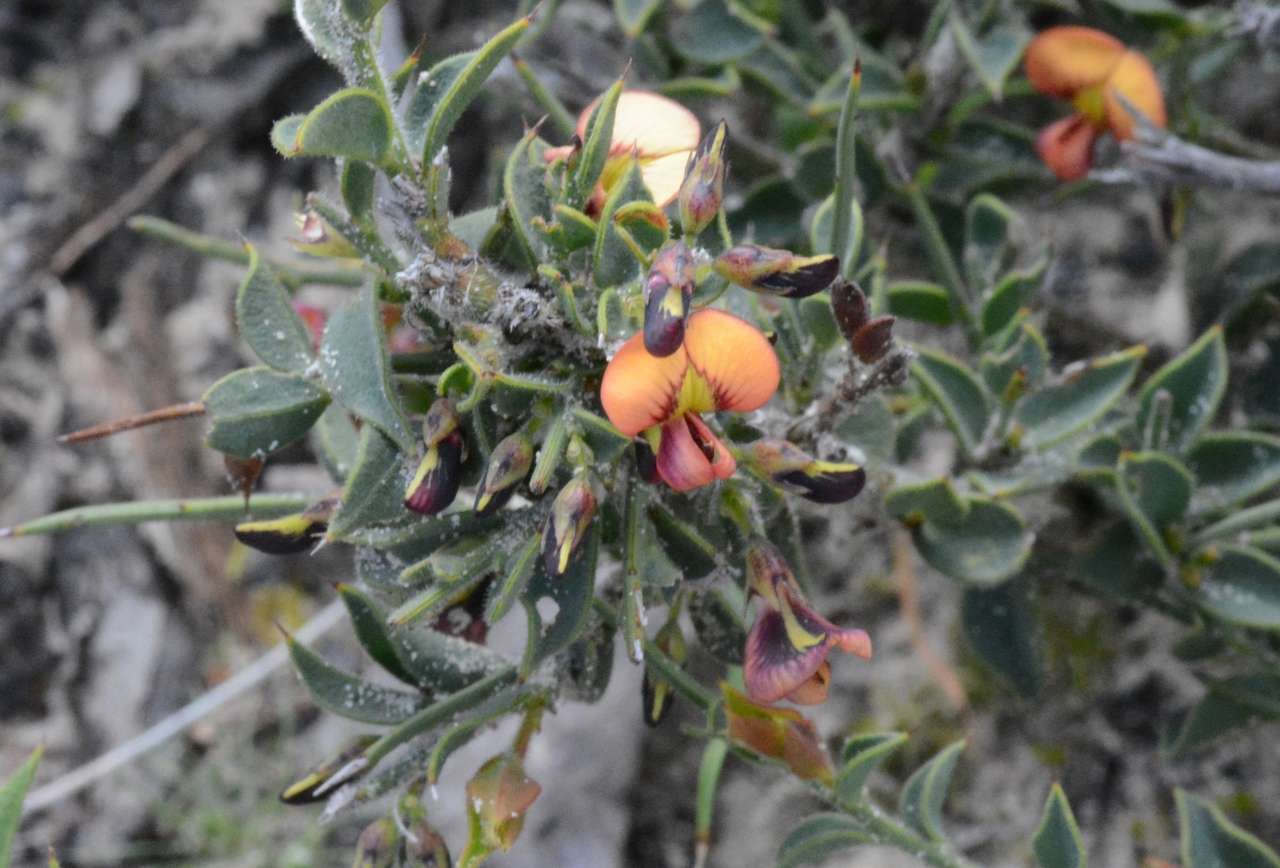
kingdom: Plantae
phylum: Tracheophyta
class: Magnoliopsida
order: Fabales
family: Fabaceae
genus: Daviesia
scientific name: Daviesia arenaria
